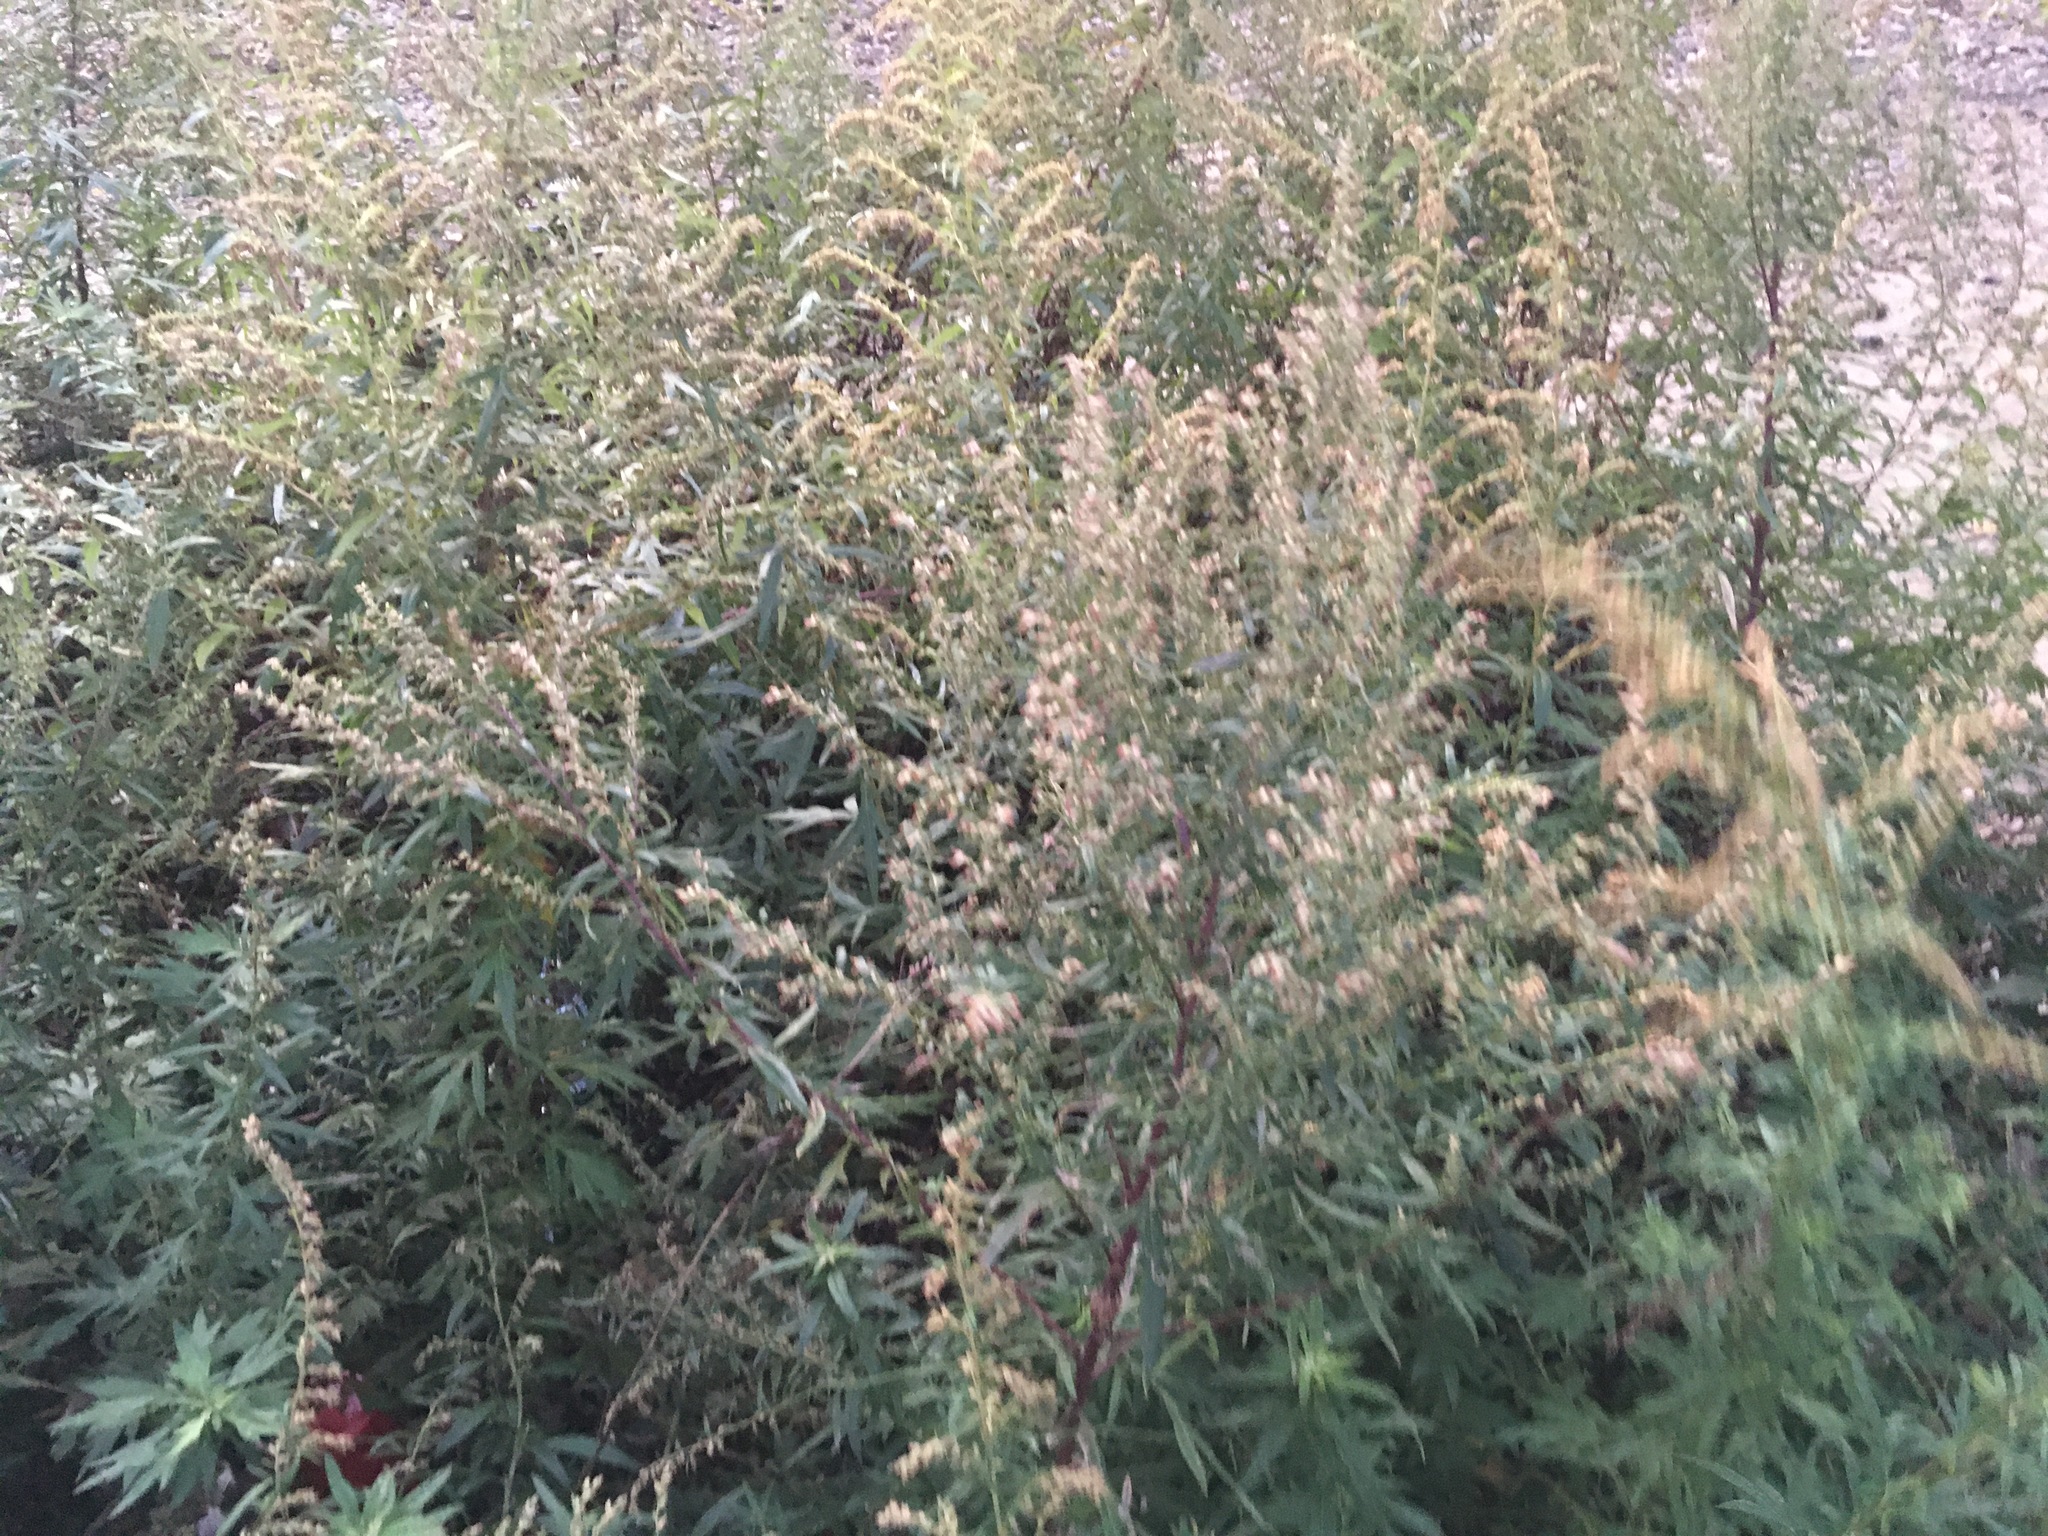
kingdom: Plantae
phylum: Tracheophyta
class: Magnoliopsida
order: Asterales
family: Asteraceae
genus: Artemisia
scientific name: Artemisia vulgaris
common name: Mugwort
